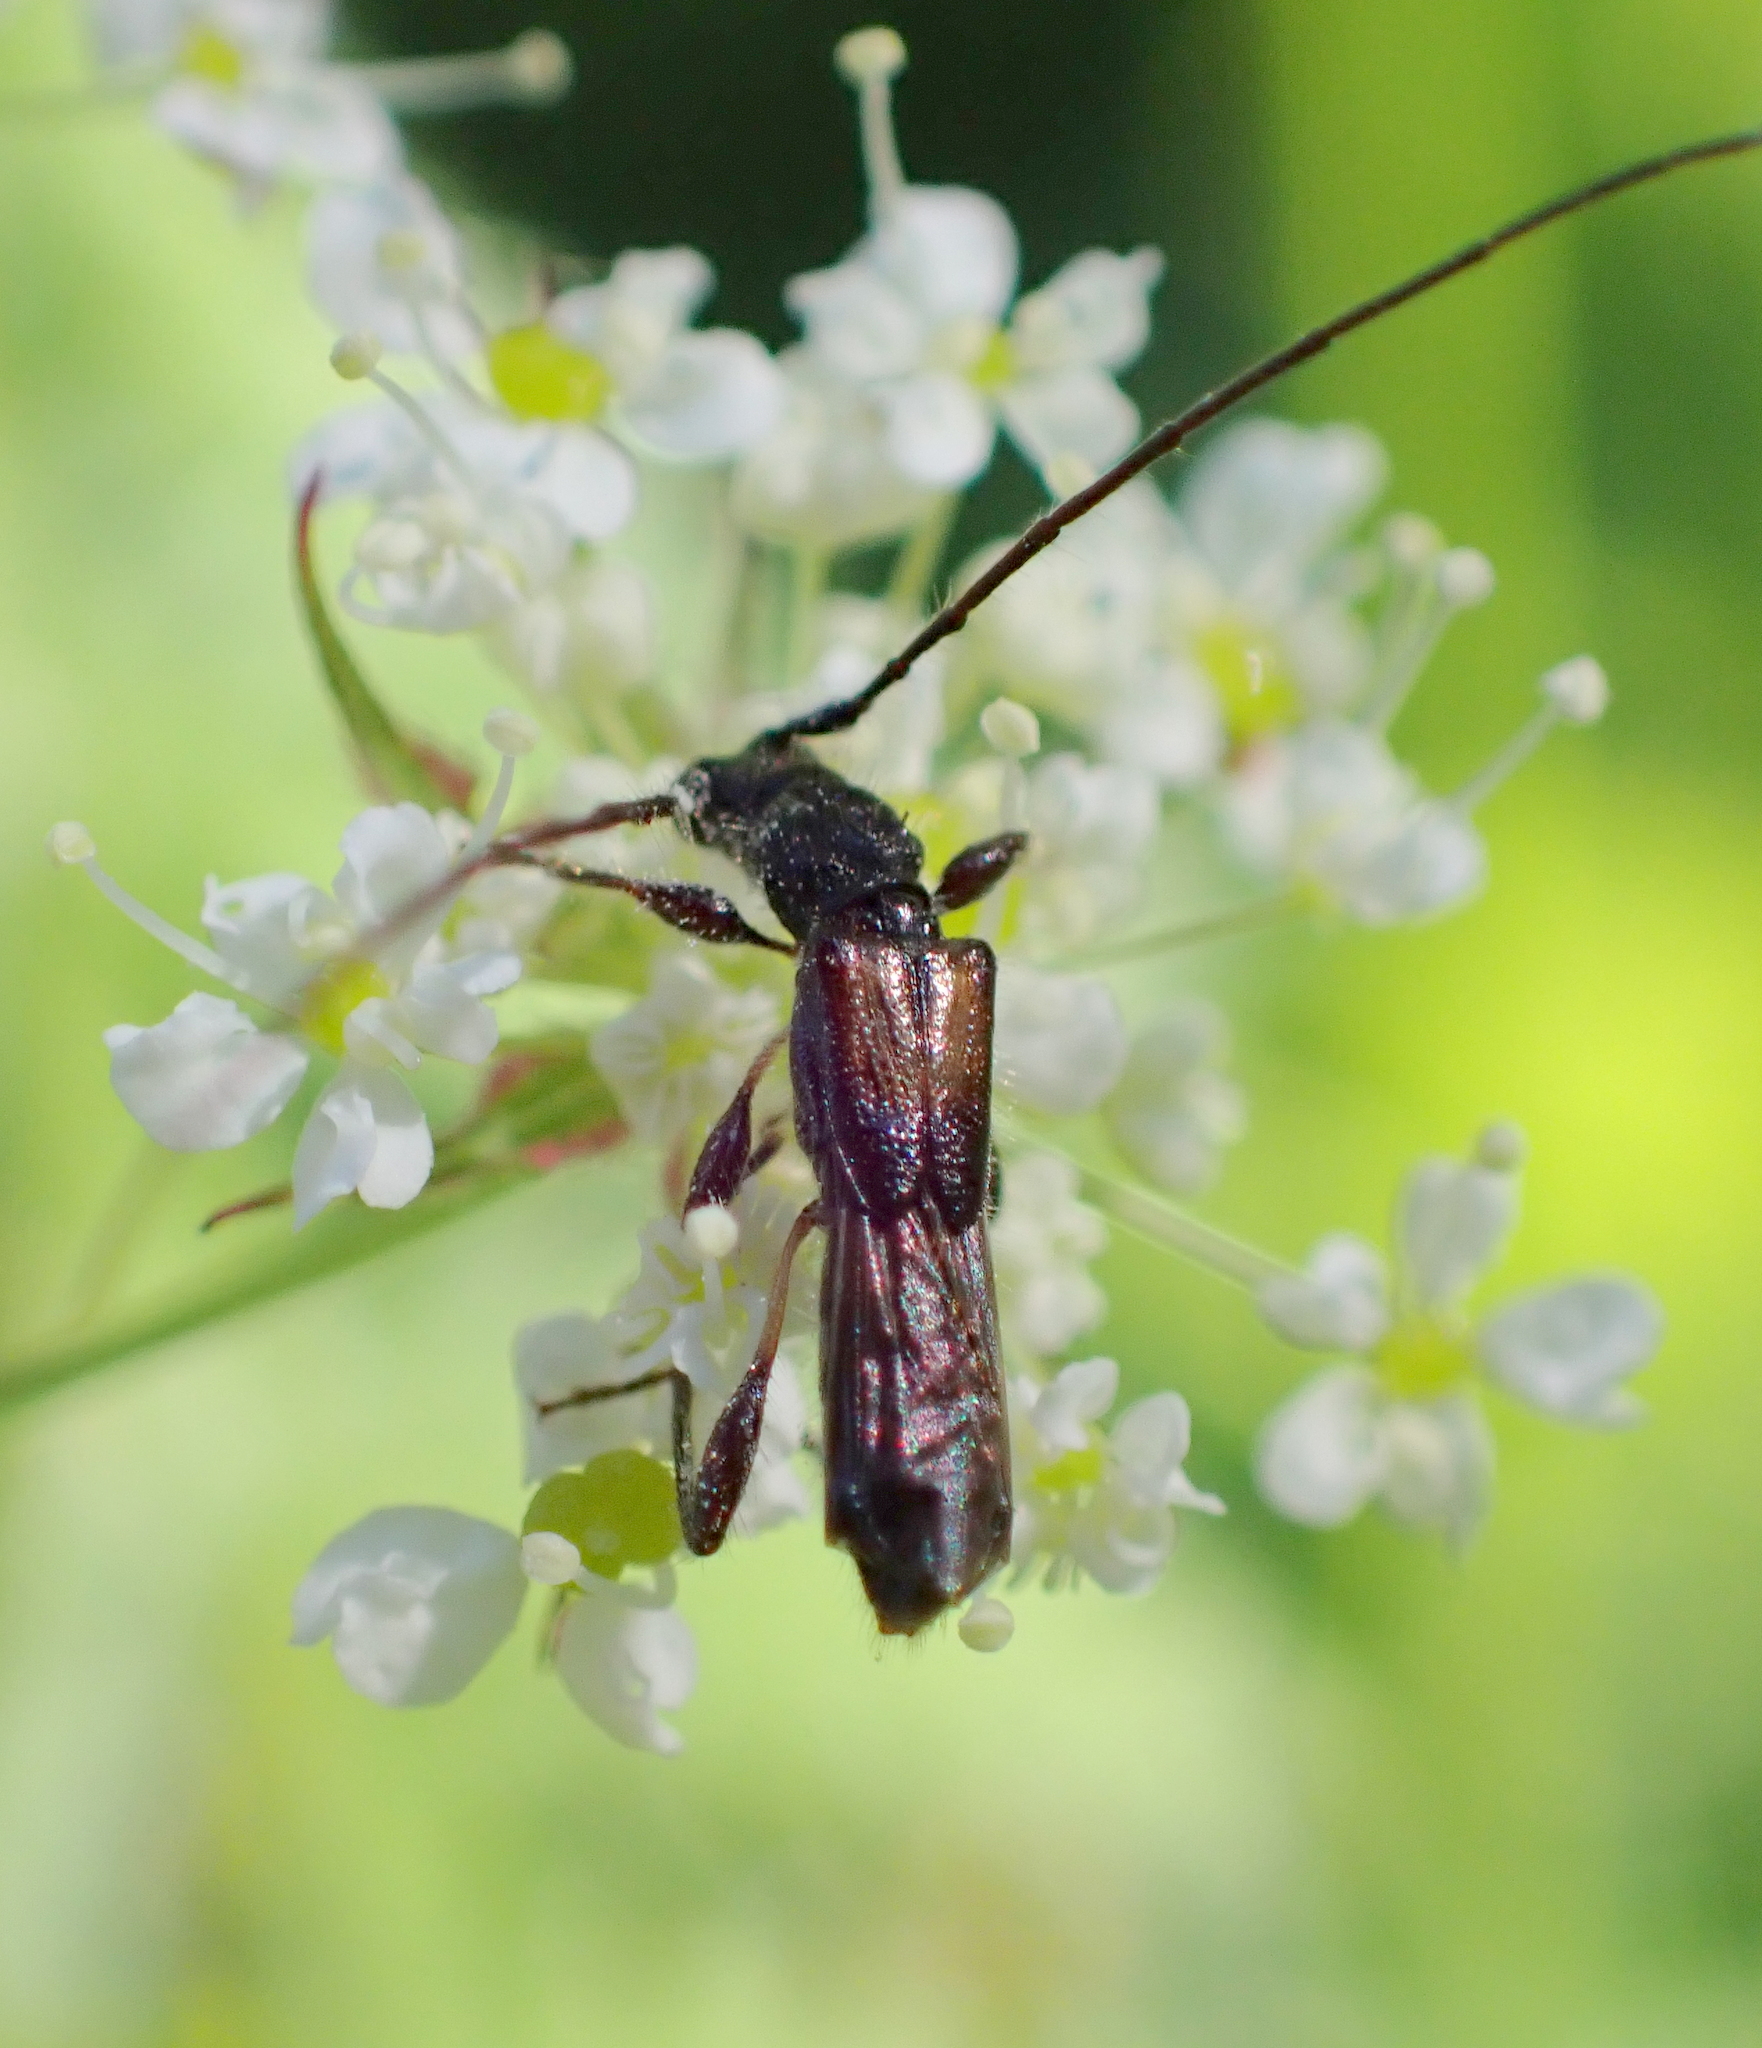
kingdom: Animalia
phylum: Arthropoda
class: Insecta
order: Coleoptera
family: Cerambycidae
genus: Molorchus
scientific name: Molorchus umbellatarum
